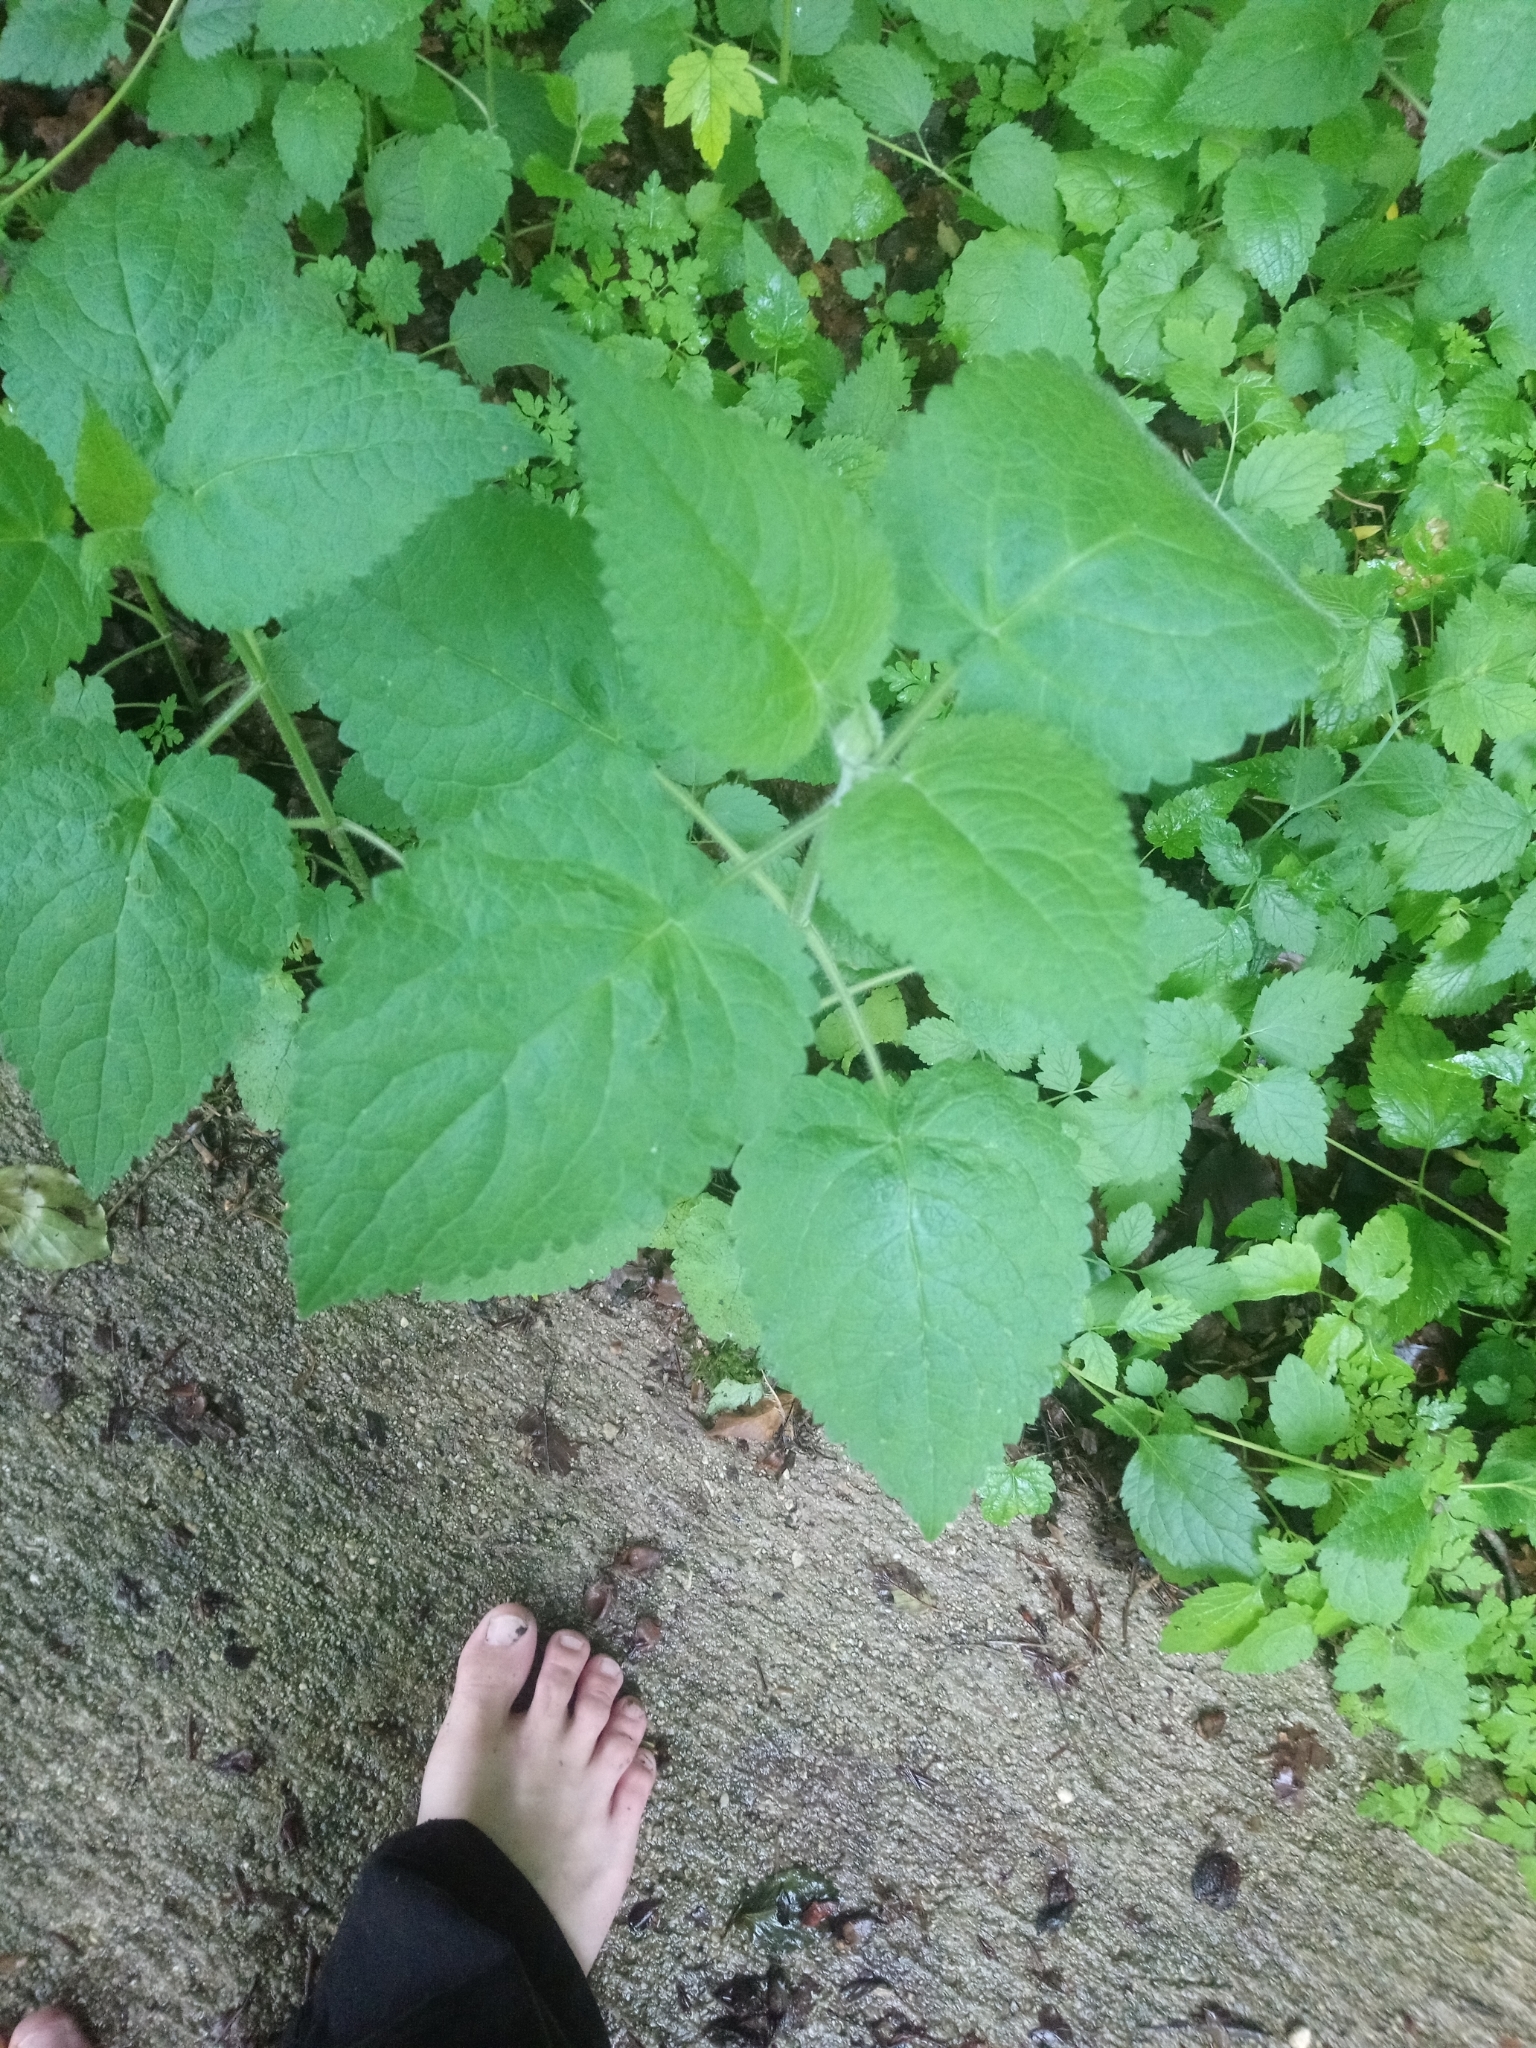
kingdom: Plantae
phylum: Tracheophyta
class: Magnoliopsida
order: Lamiales
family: Lamiaceae
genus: Stachys
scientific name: Stachys sylvatica
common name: Hedge woundwort
